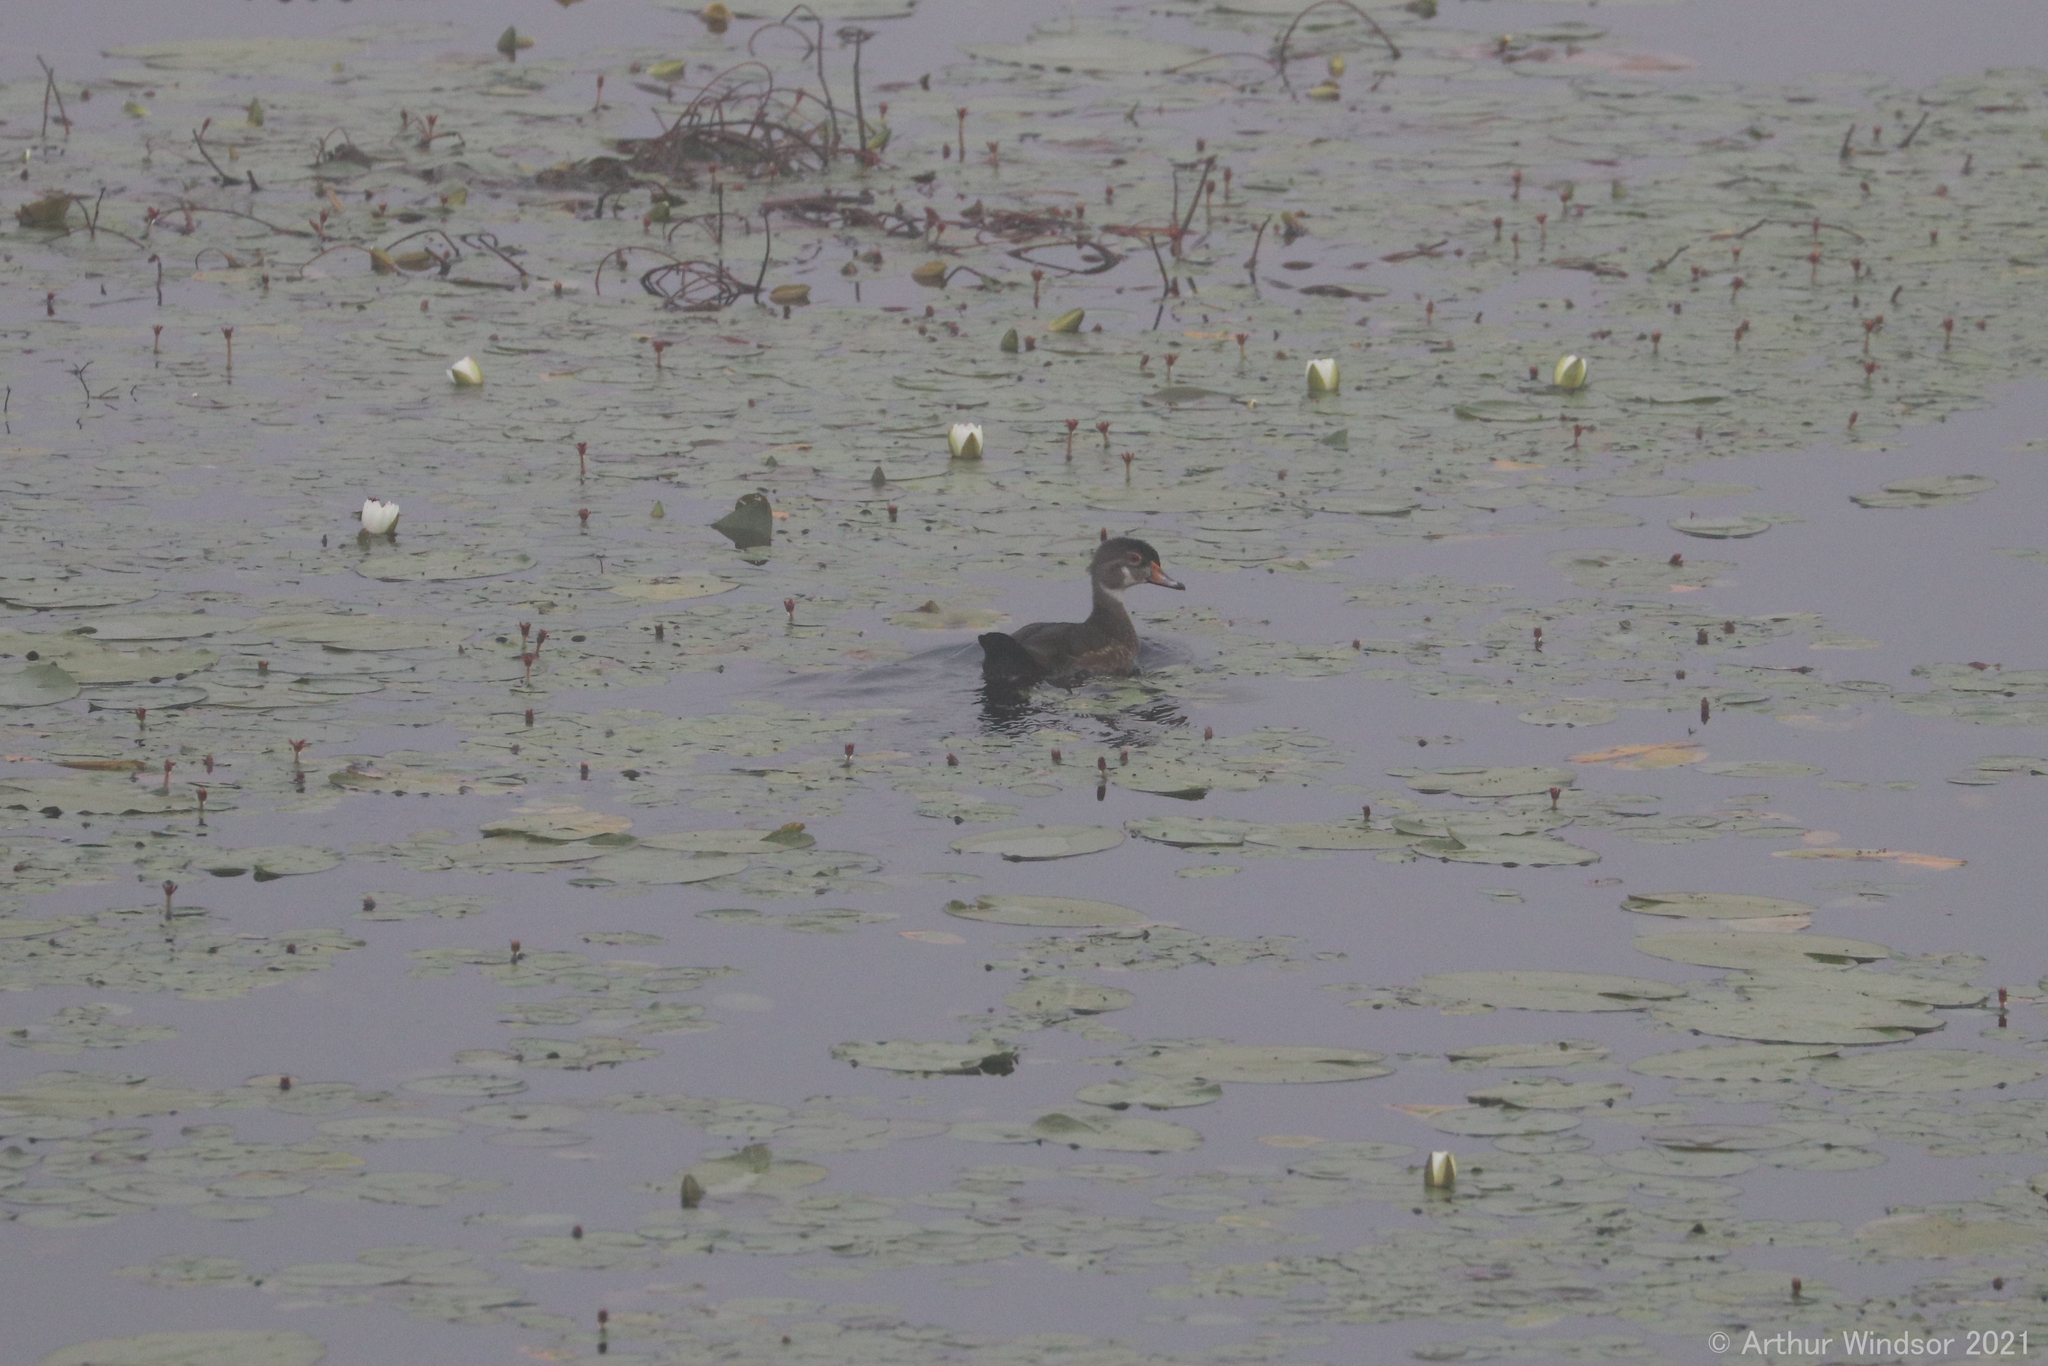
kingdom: Animalia
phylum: Chordata
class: Aves
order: Anseriformes
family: Anatidae
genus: Aix
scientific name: Aix sponsa
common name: Wood duck
